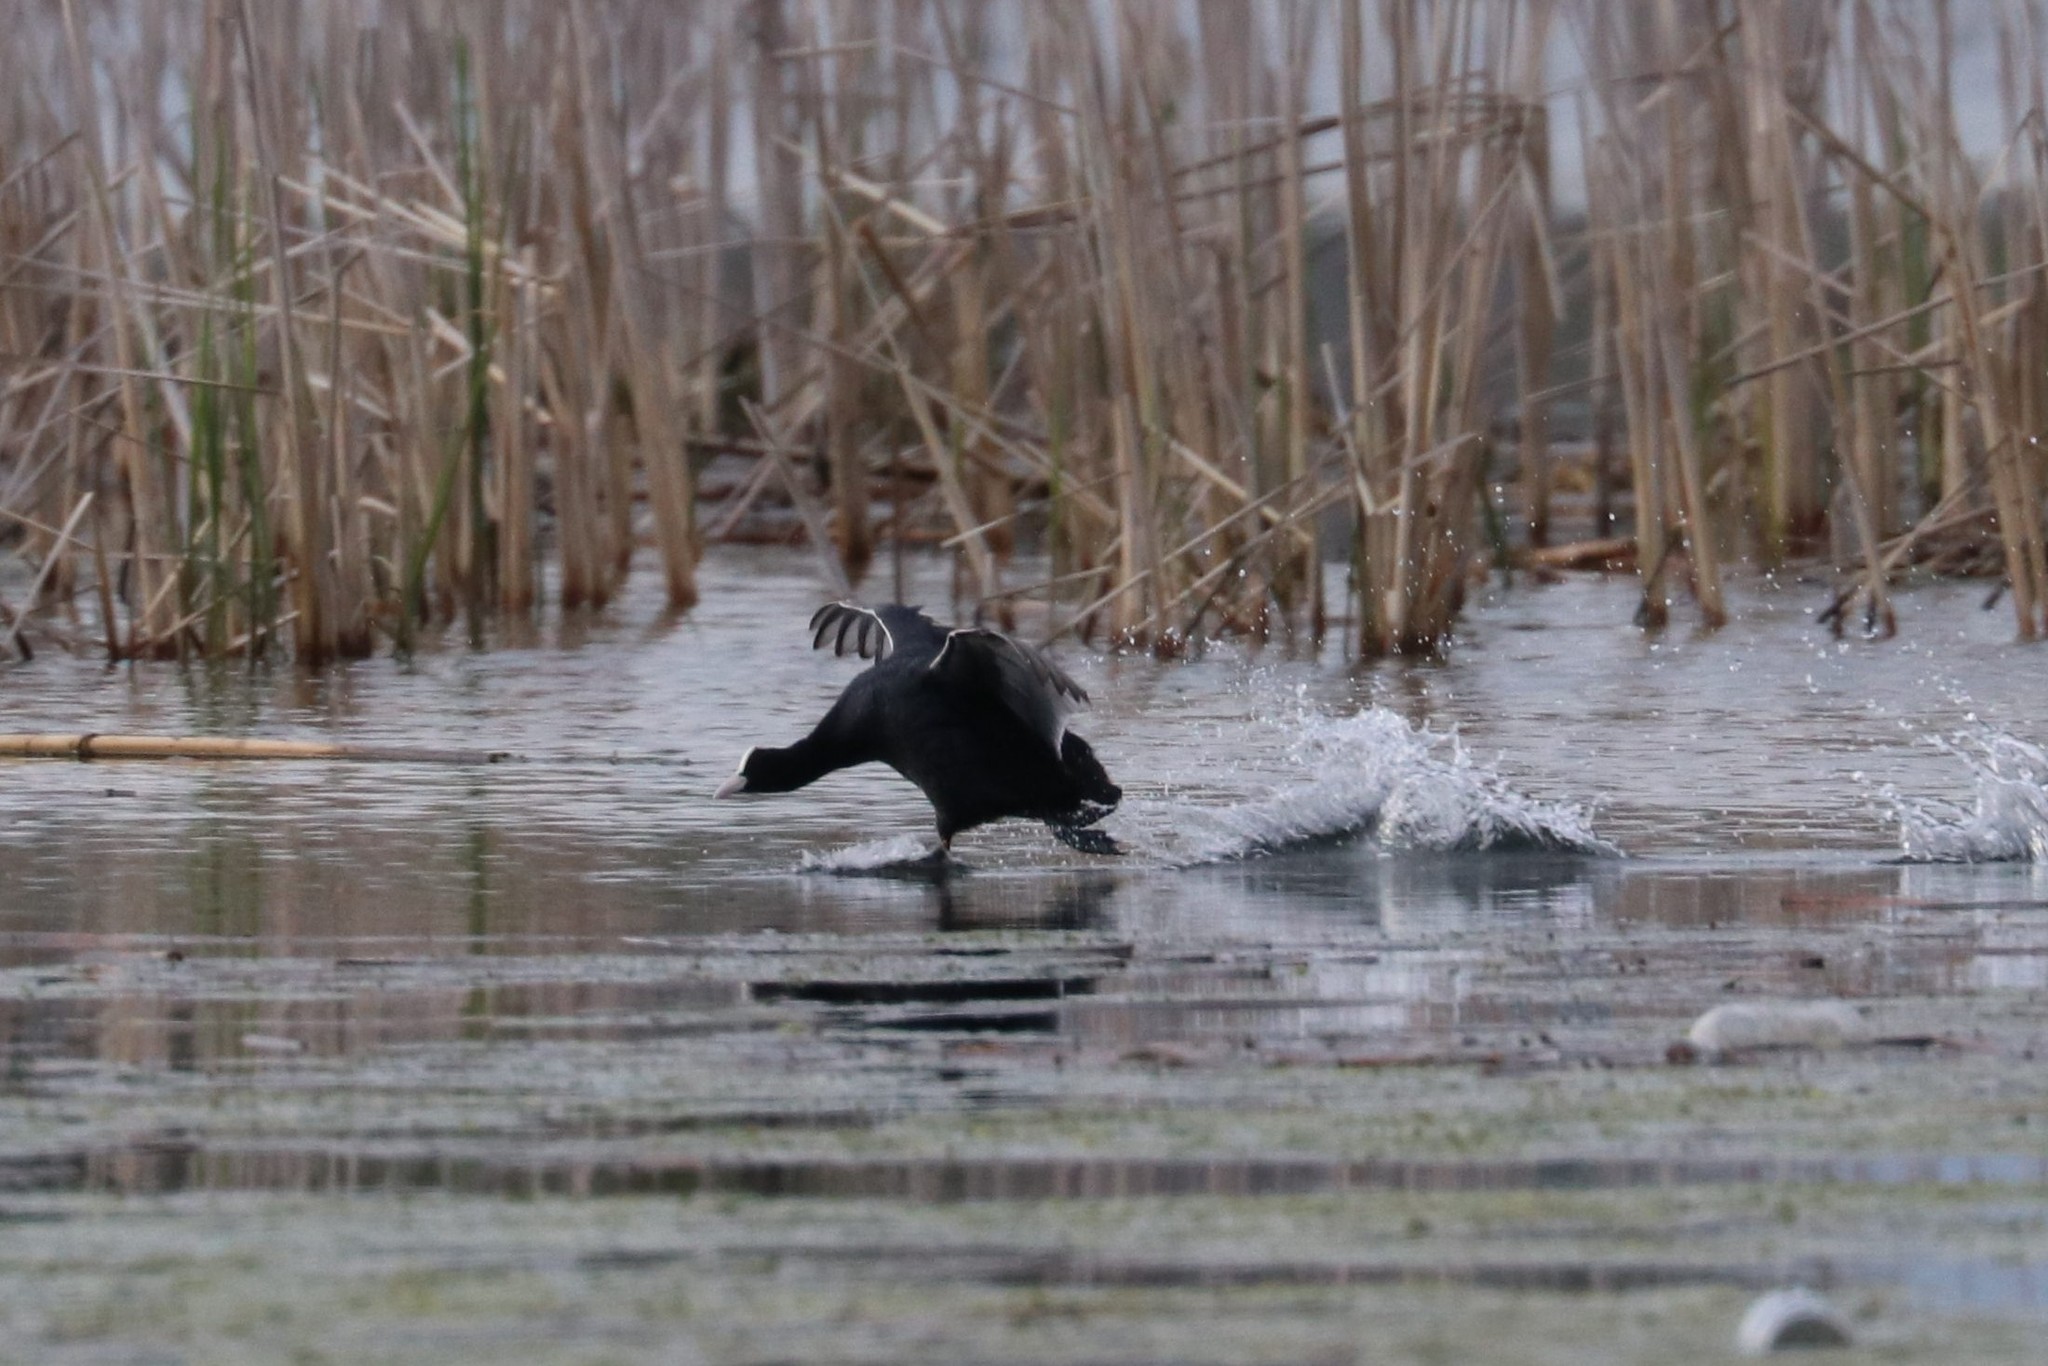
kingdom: Animalia
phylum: Chordata
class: Aves
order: Gruiformes
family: Rallidae
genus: Fulica
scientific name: Fulica atra
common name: Eurasian coot
